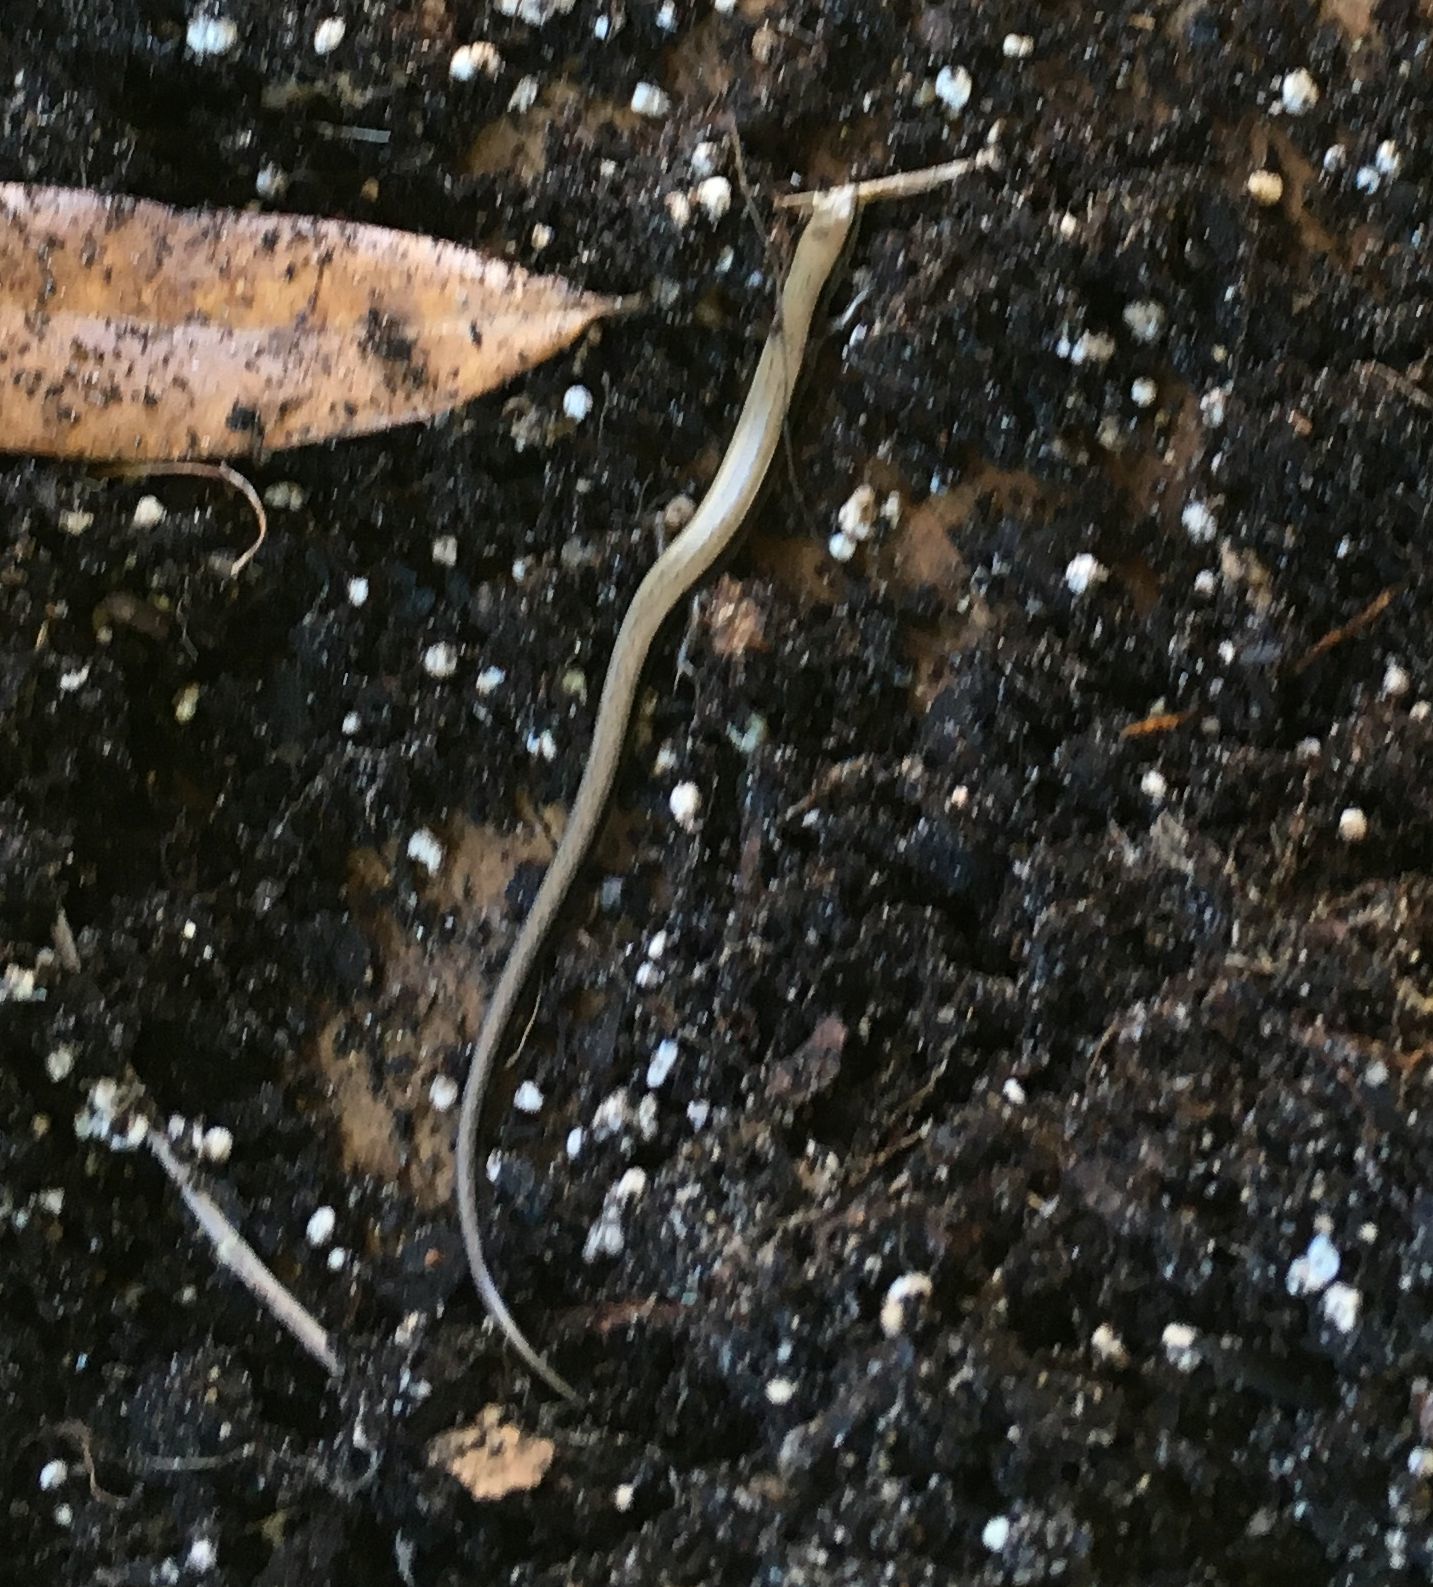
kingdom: Animalia
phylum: Chordata
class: Squamata
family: Scincidae
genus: Scincella
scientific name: Scincella lateralis
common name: Ground skink
